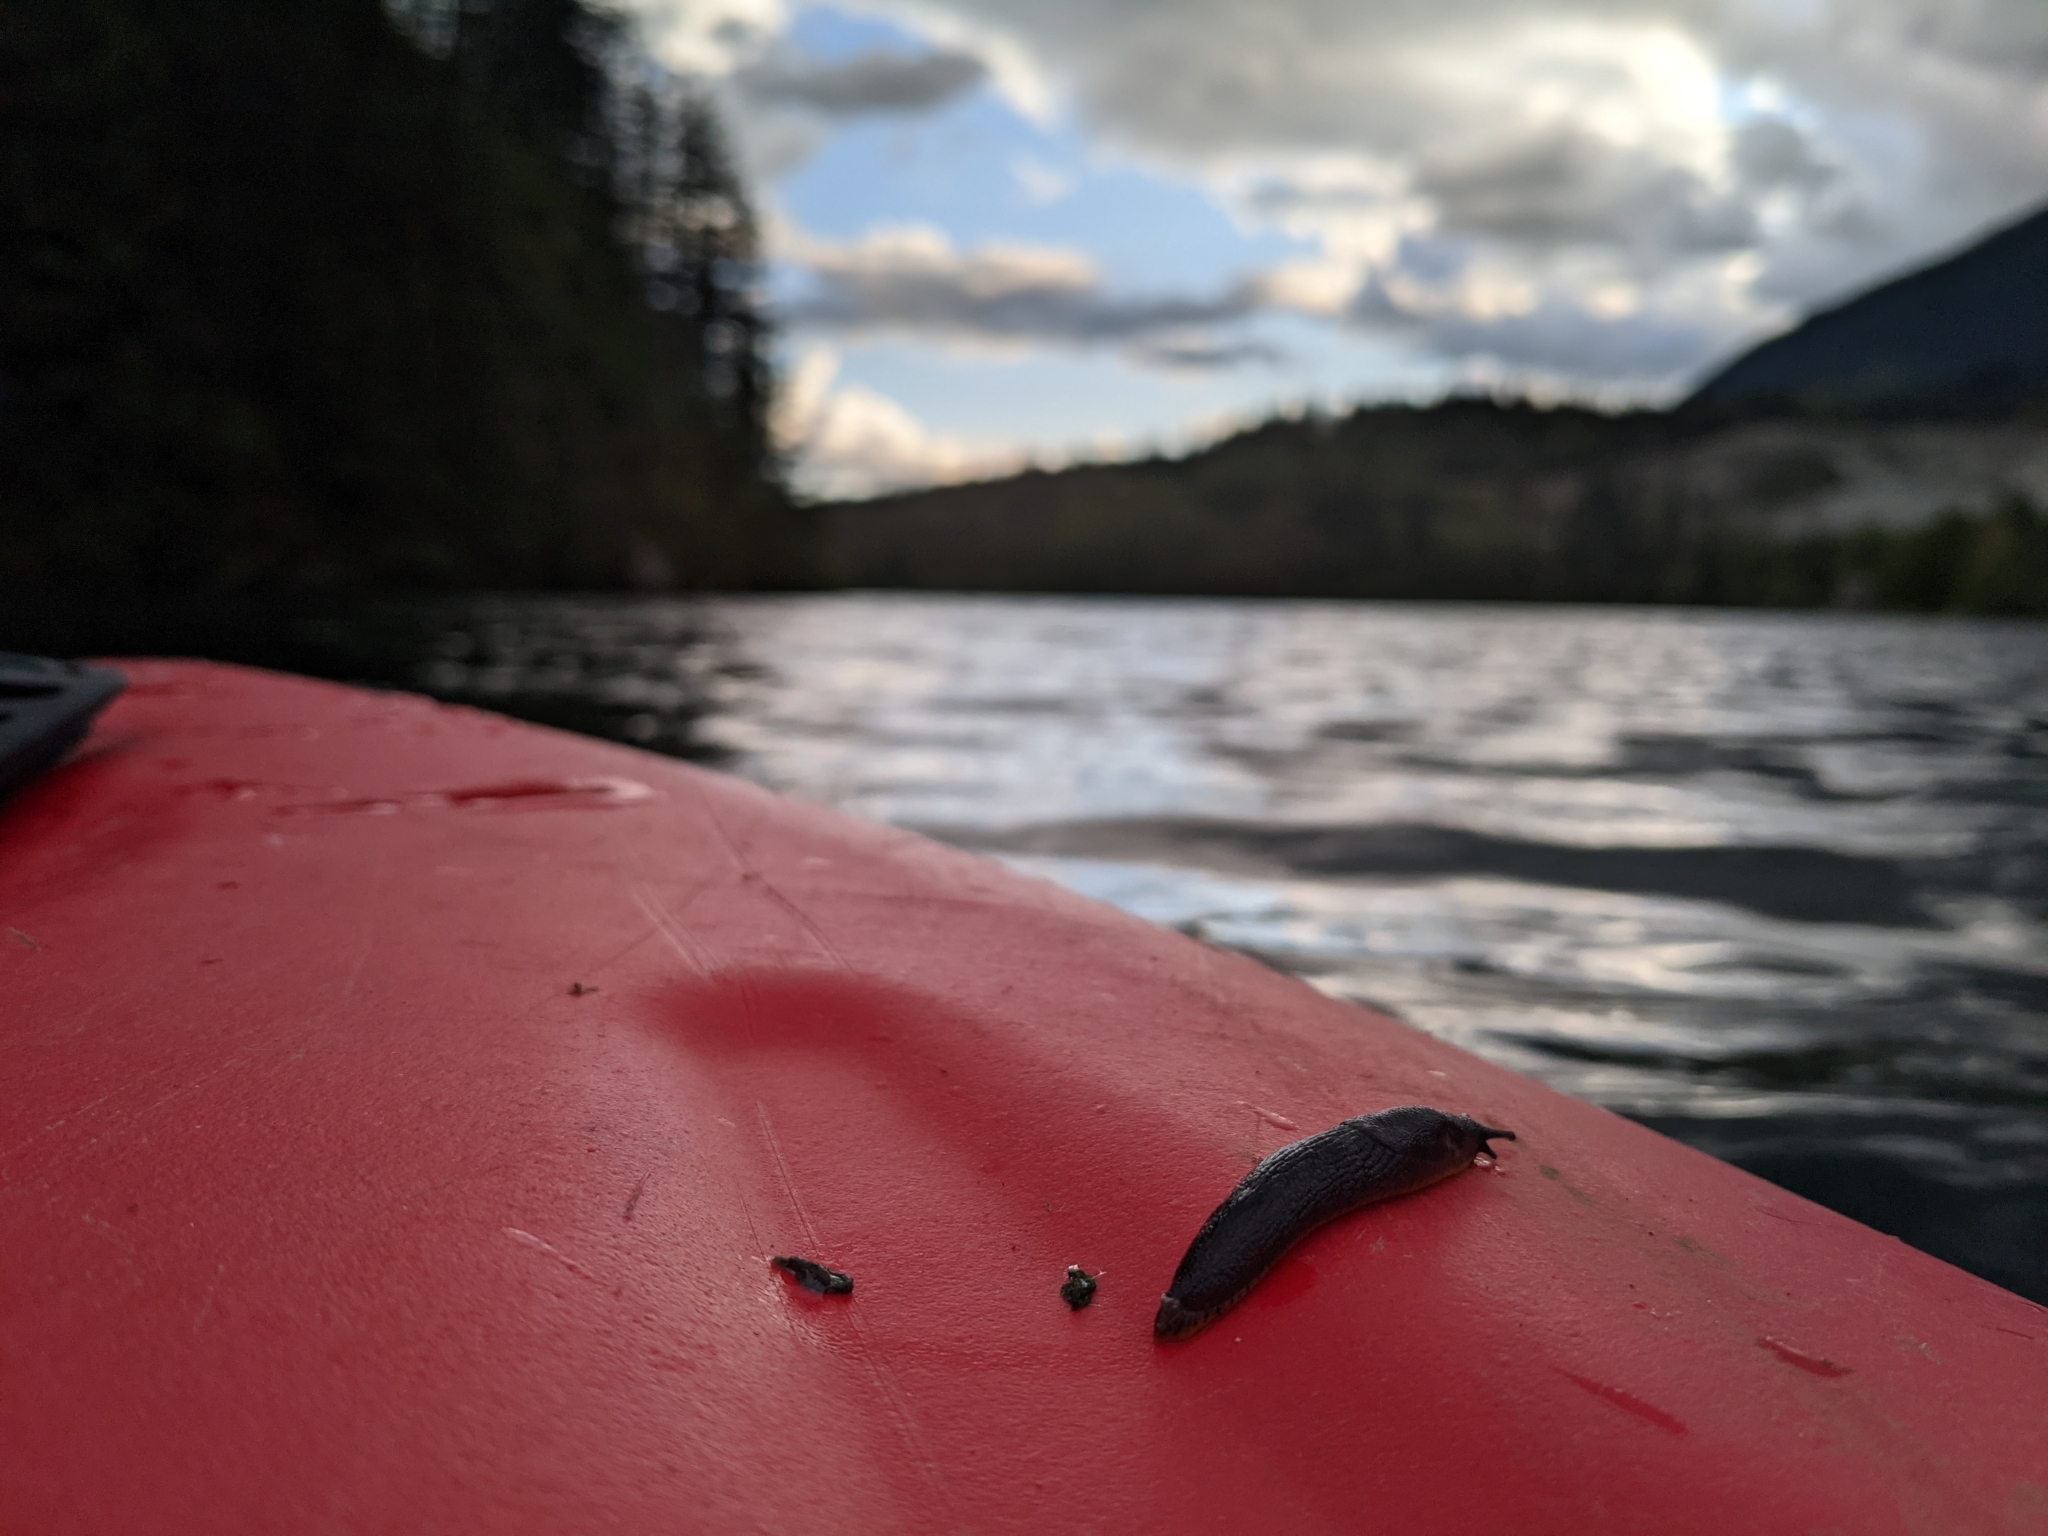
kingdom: Animalia
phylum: Mollusca
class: Gastropoda
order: Stylommatophora
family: Arionidae
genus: Arion
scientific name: Arion
